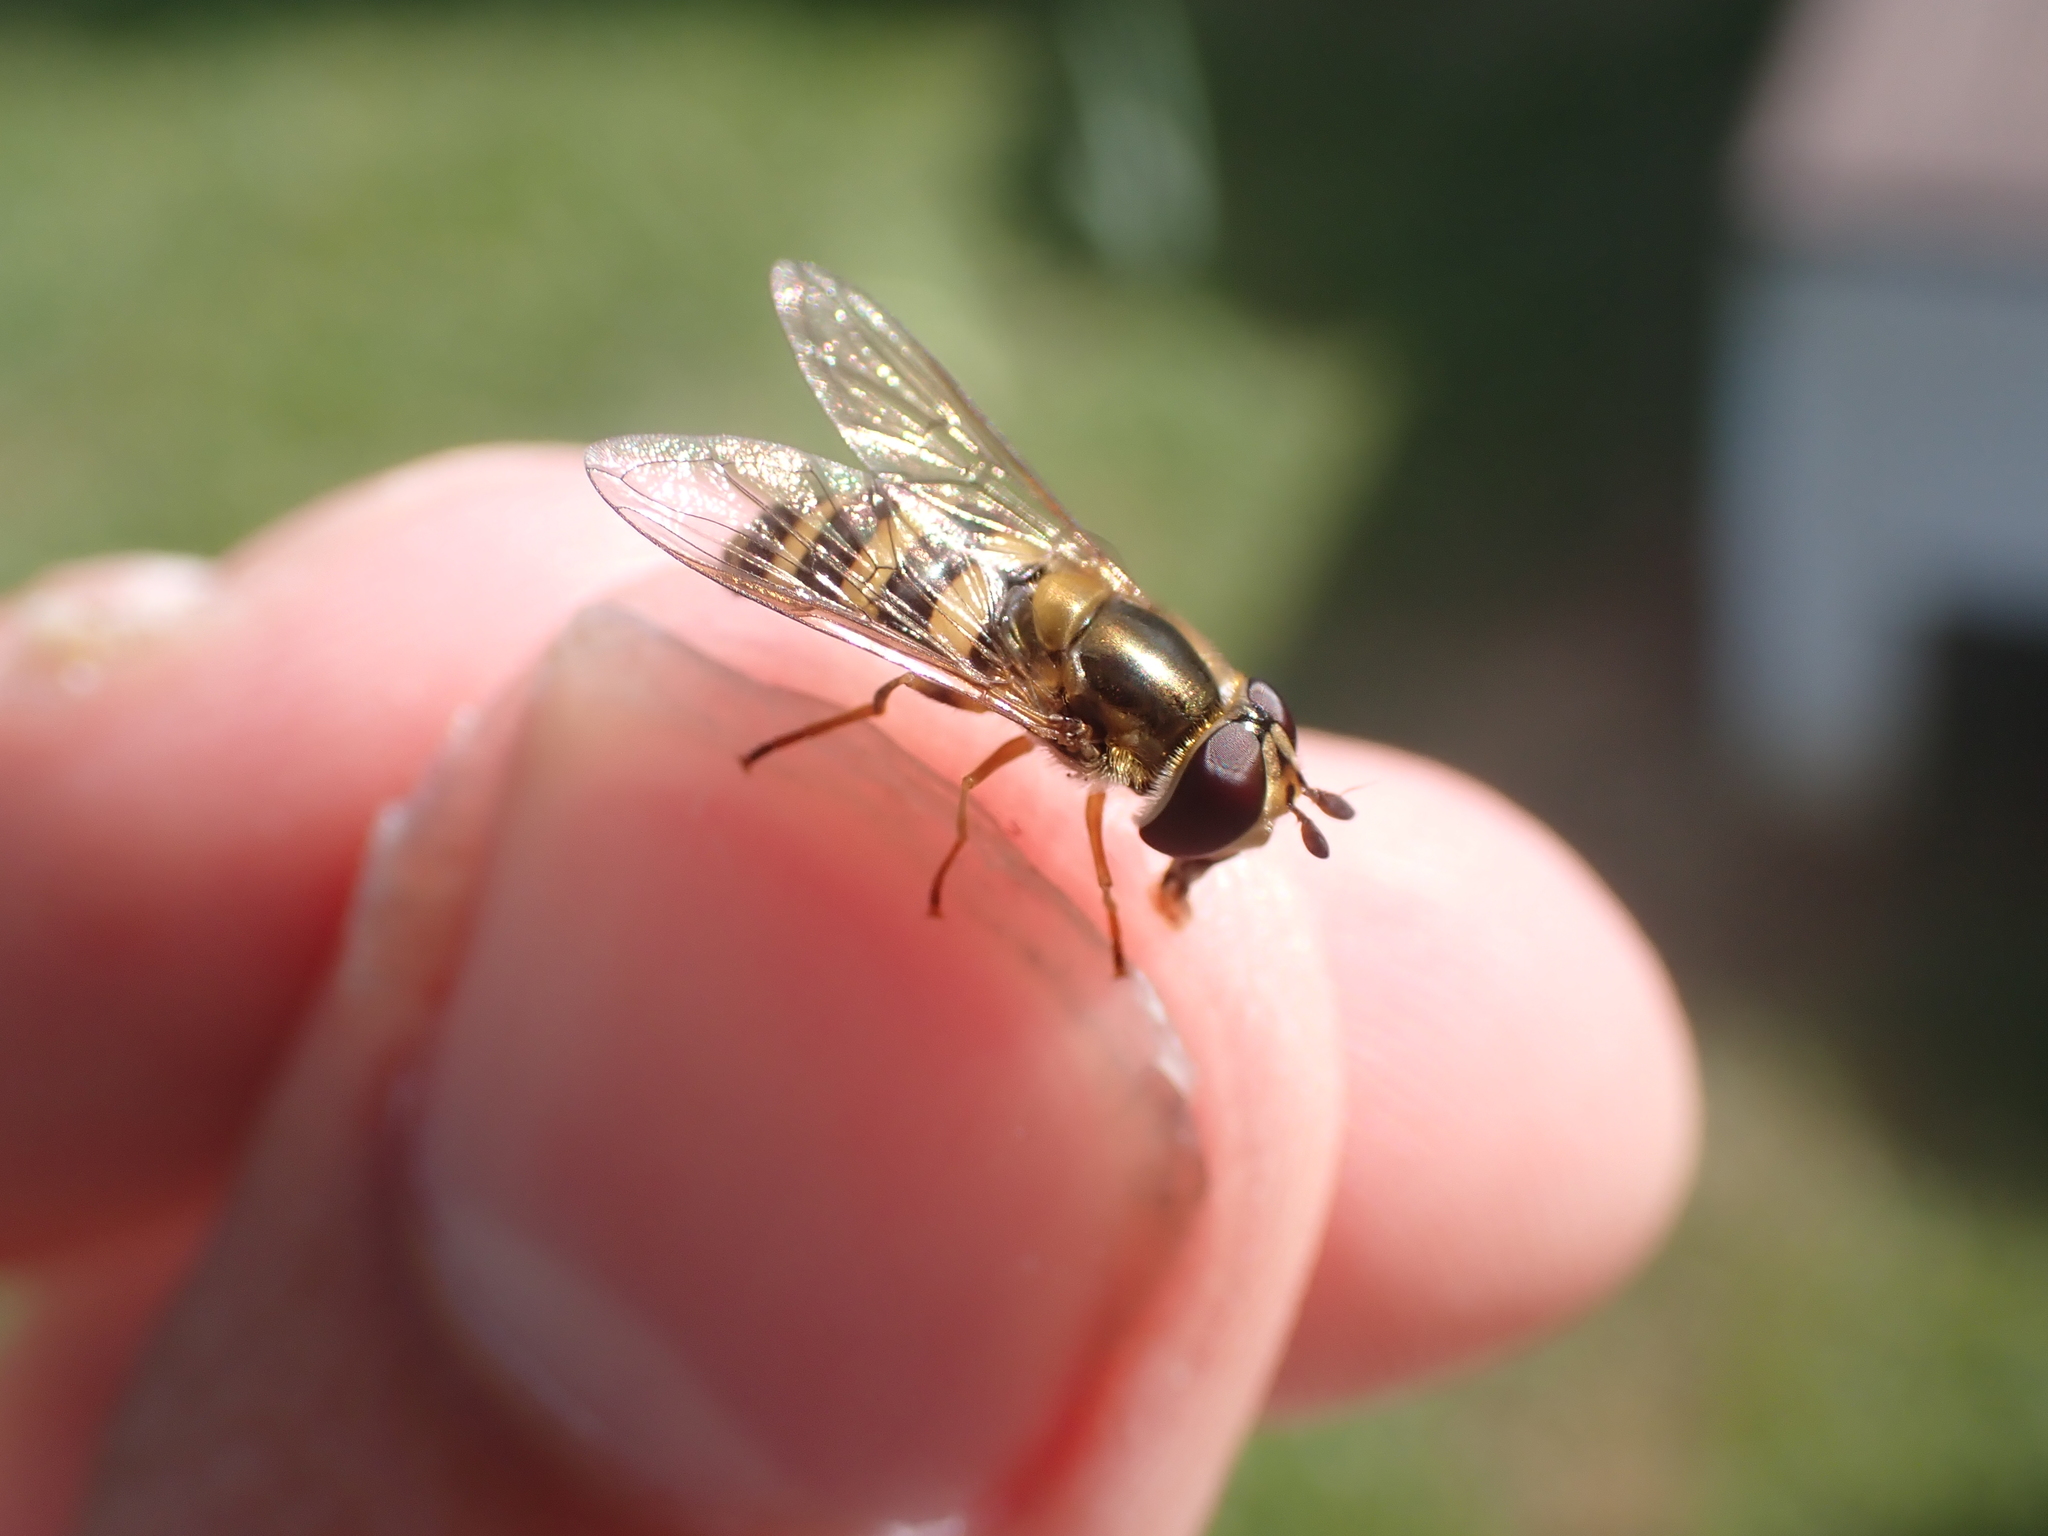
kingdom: Animalia
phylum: Arthropoda
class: Insecta
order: Diptera
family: Syrphidae
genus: Eupeodes
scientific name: Eupeodes
